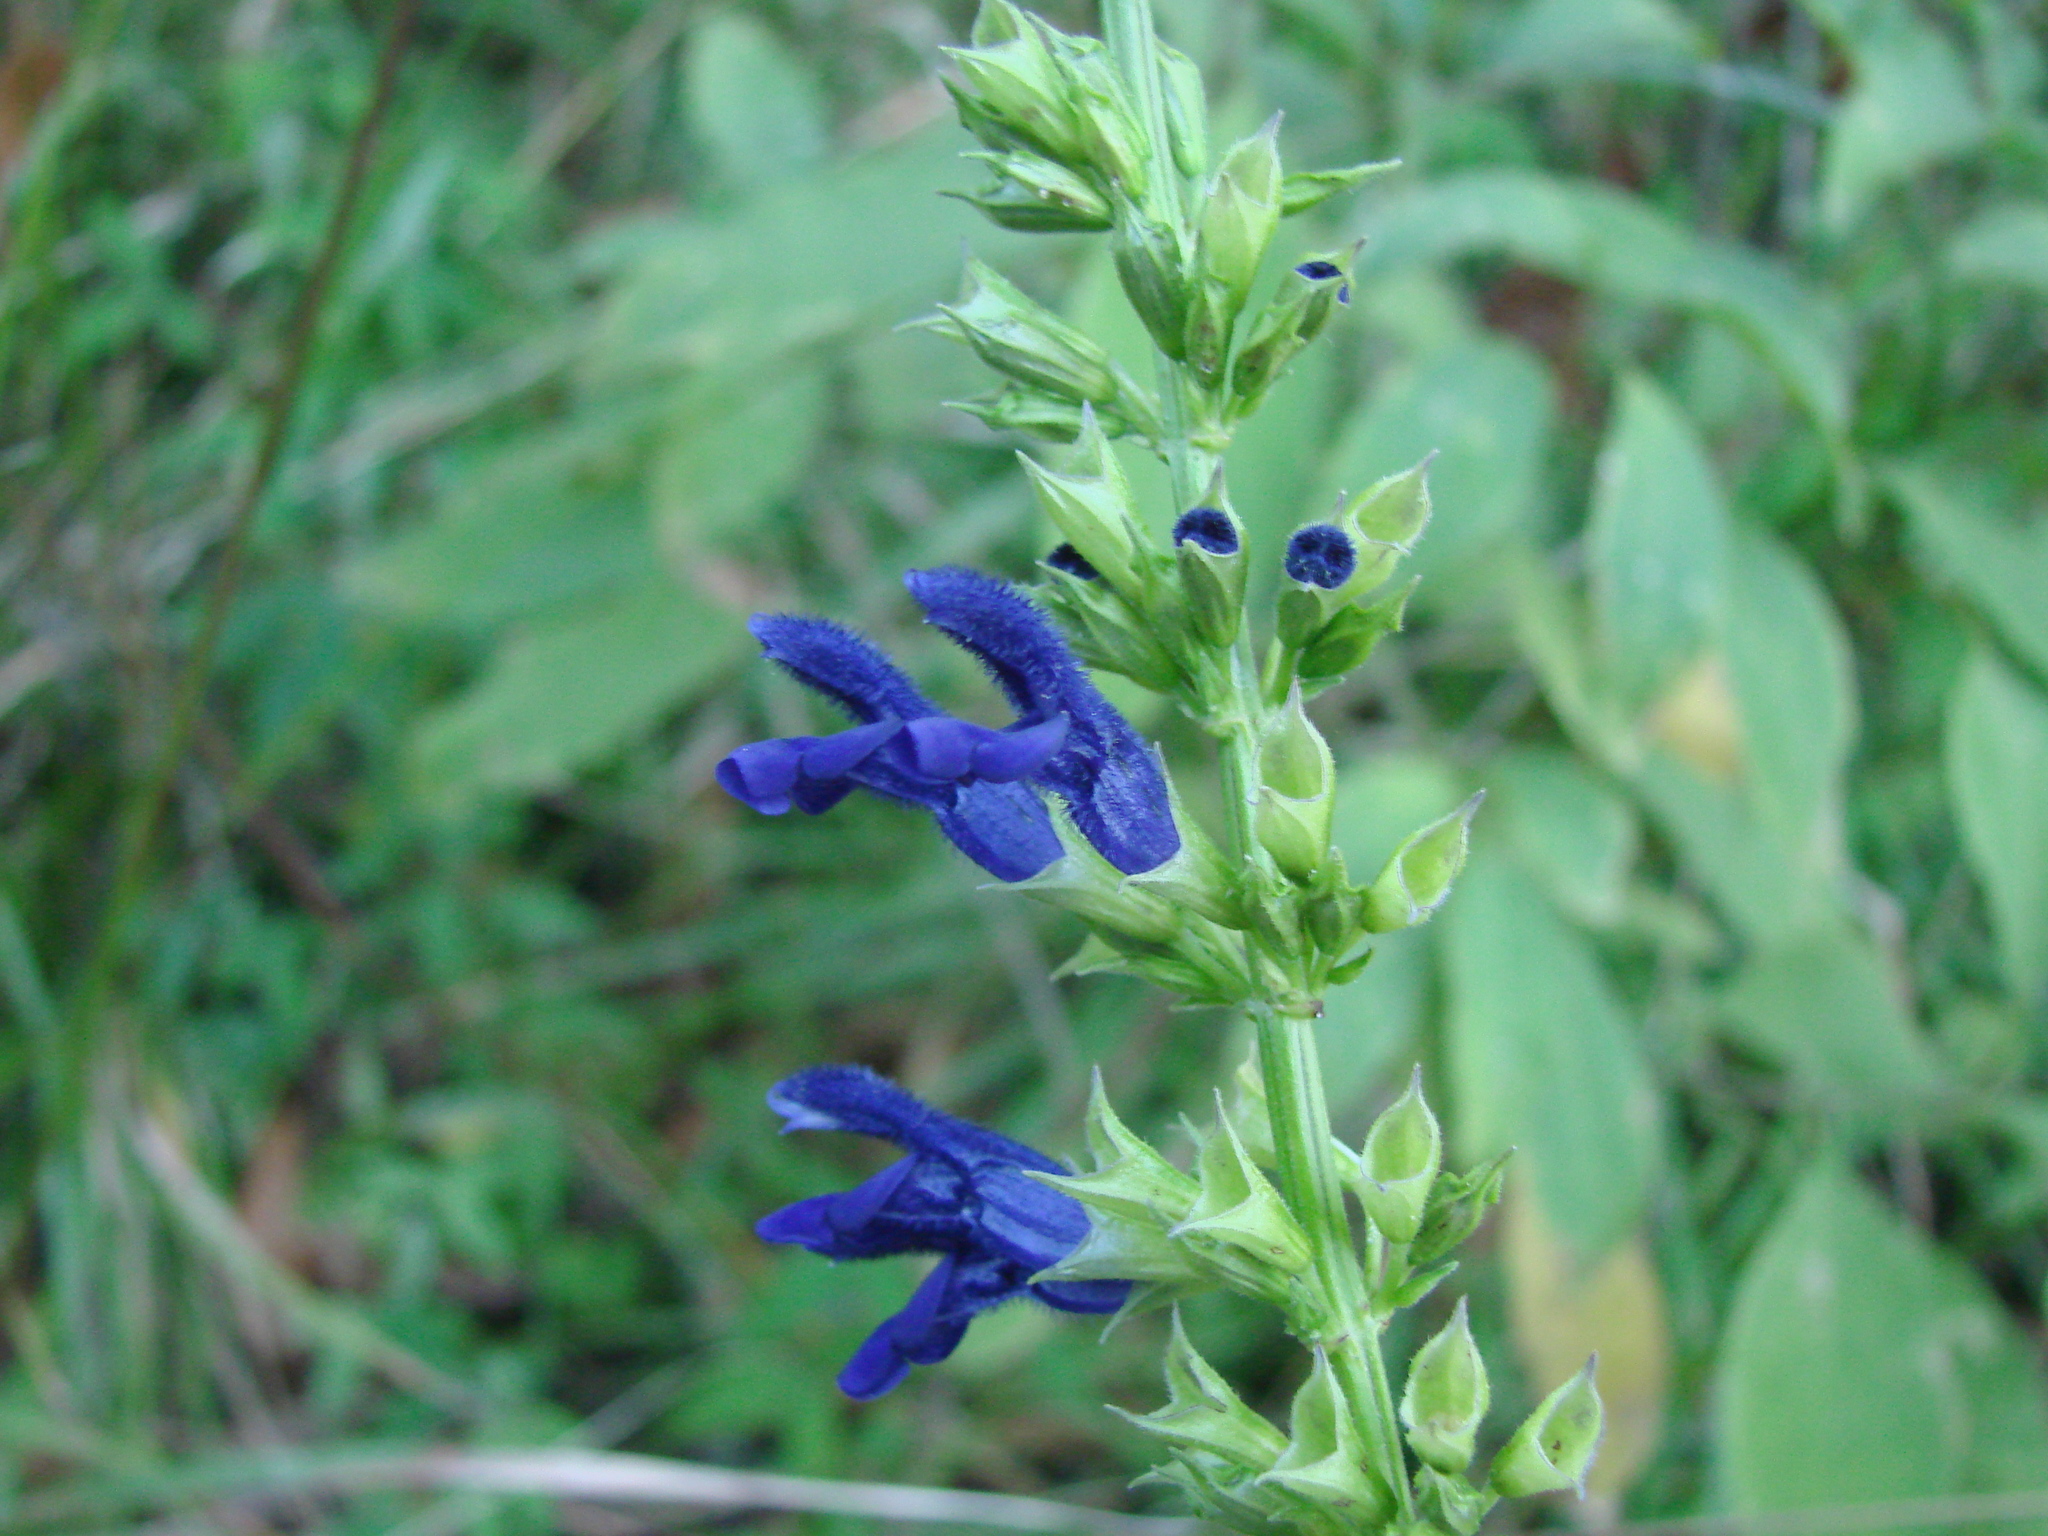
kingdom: Plantae
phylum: Tracheophyta
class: Magnoliopsida
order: Lamiales
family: Lamiaceae
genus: Salvia
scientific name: Salvia mexicana
